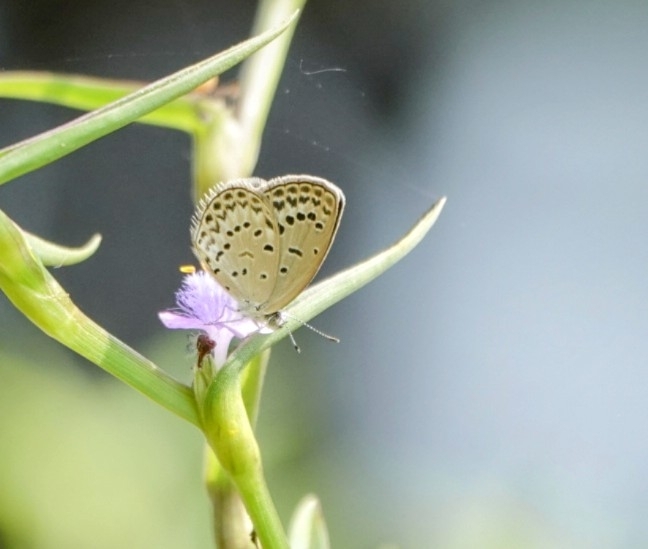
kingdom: Animalia
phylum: Arthropoda
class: Insecta
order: Lepidoptera
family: Lycaenidae
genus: Pseudozizeeria
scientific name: Pseudozizeeria maha
